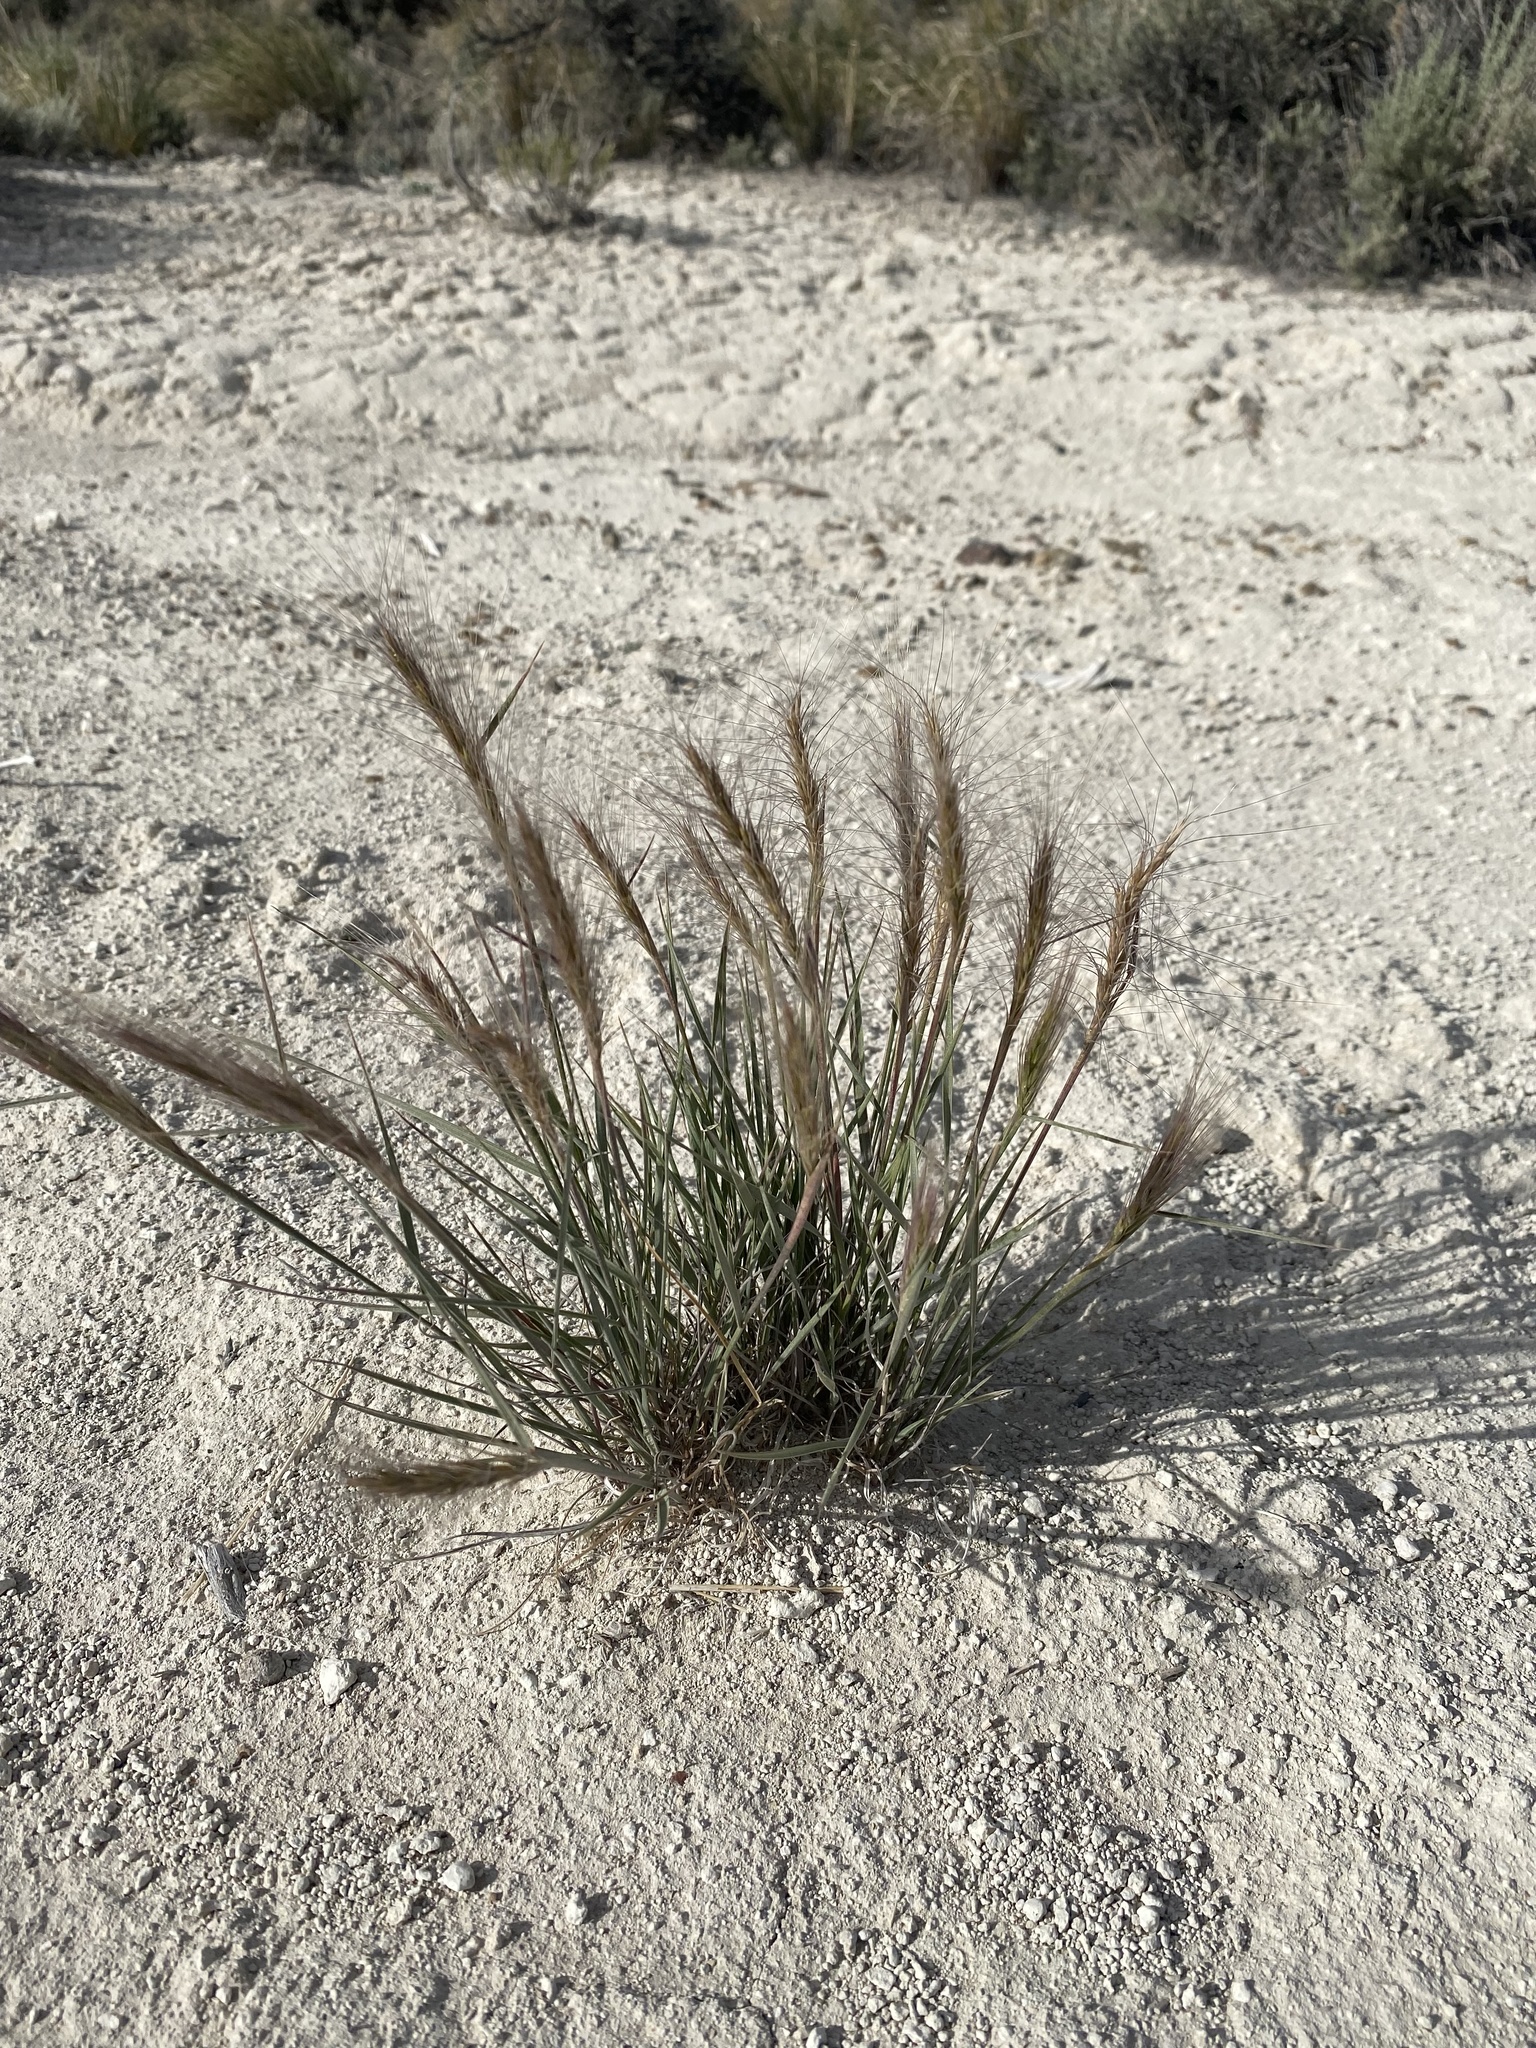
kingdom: Plantae
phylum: Tracheophyta
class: Liliopsida
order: Poales
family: Poaceae
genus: Elymus
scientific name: Elymus elymoides
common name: Bottlebrush squirreltail
